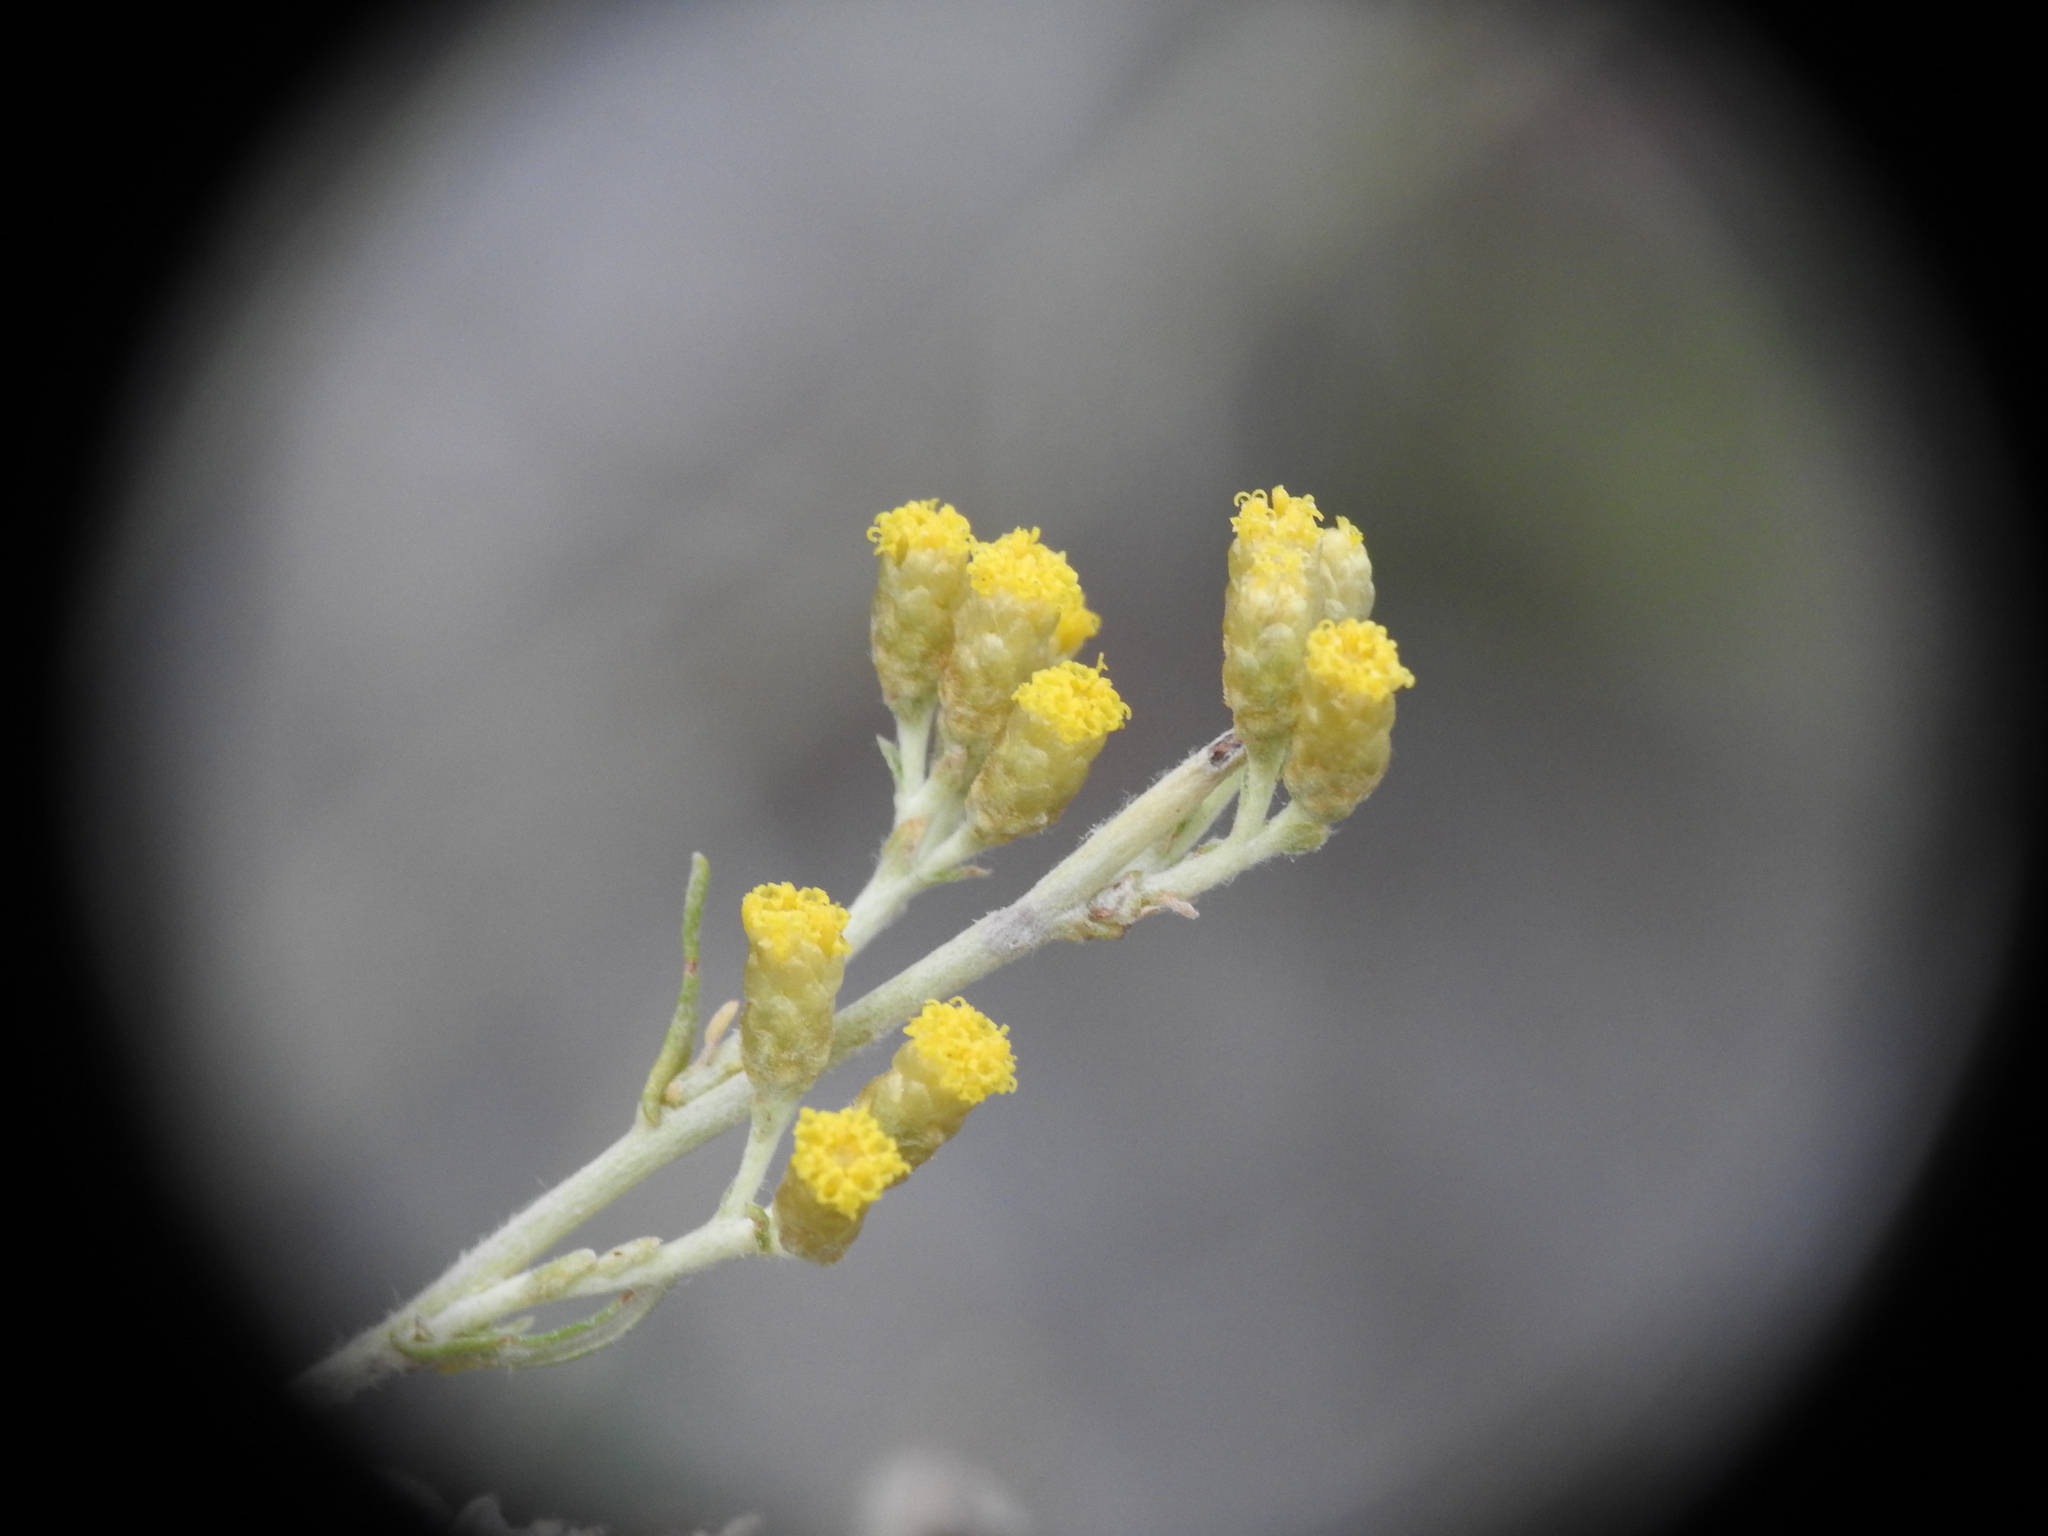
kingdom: Plantae
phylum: Tracheophyta
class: Magnoliopsida
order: Asterales
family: Asteraceae
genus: Helichrysum
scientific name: Helichrysum italicum
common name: Curryplant
